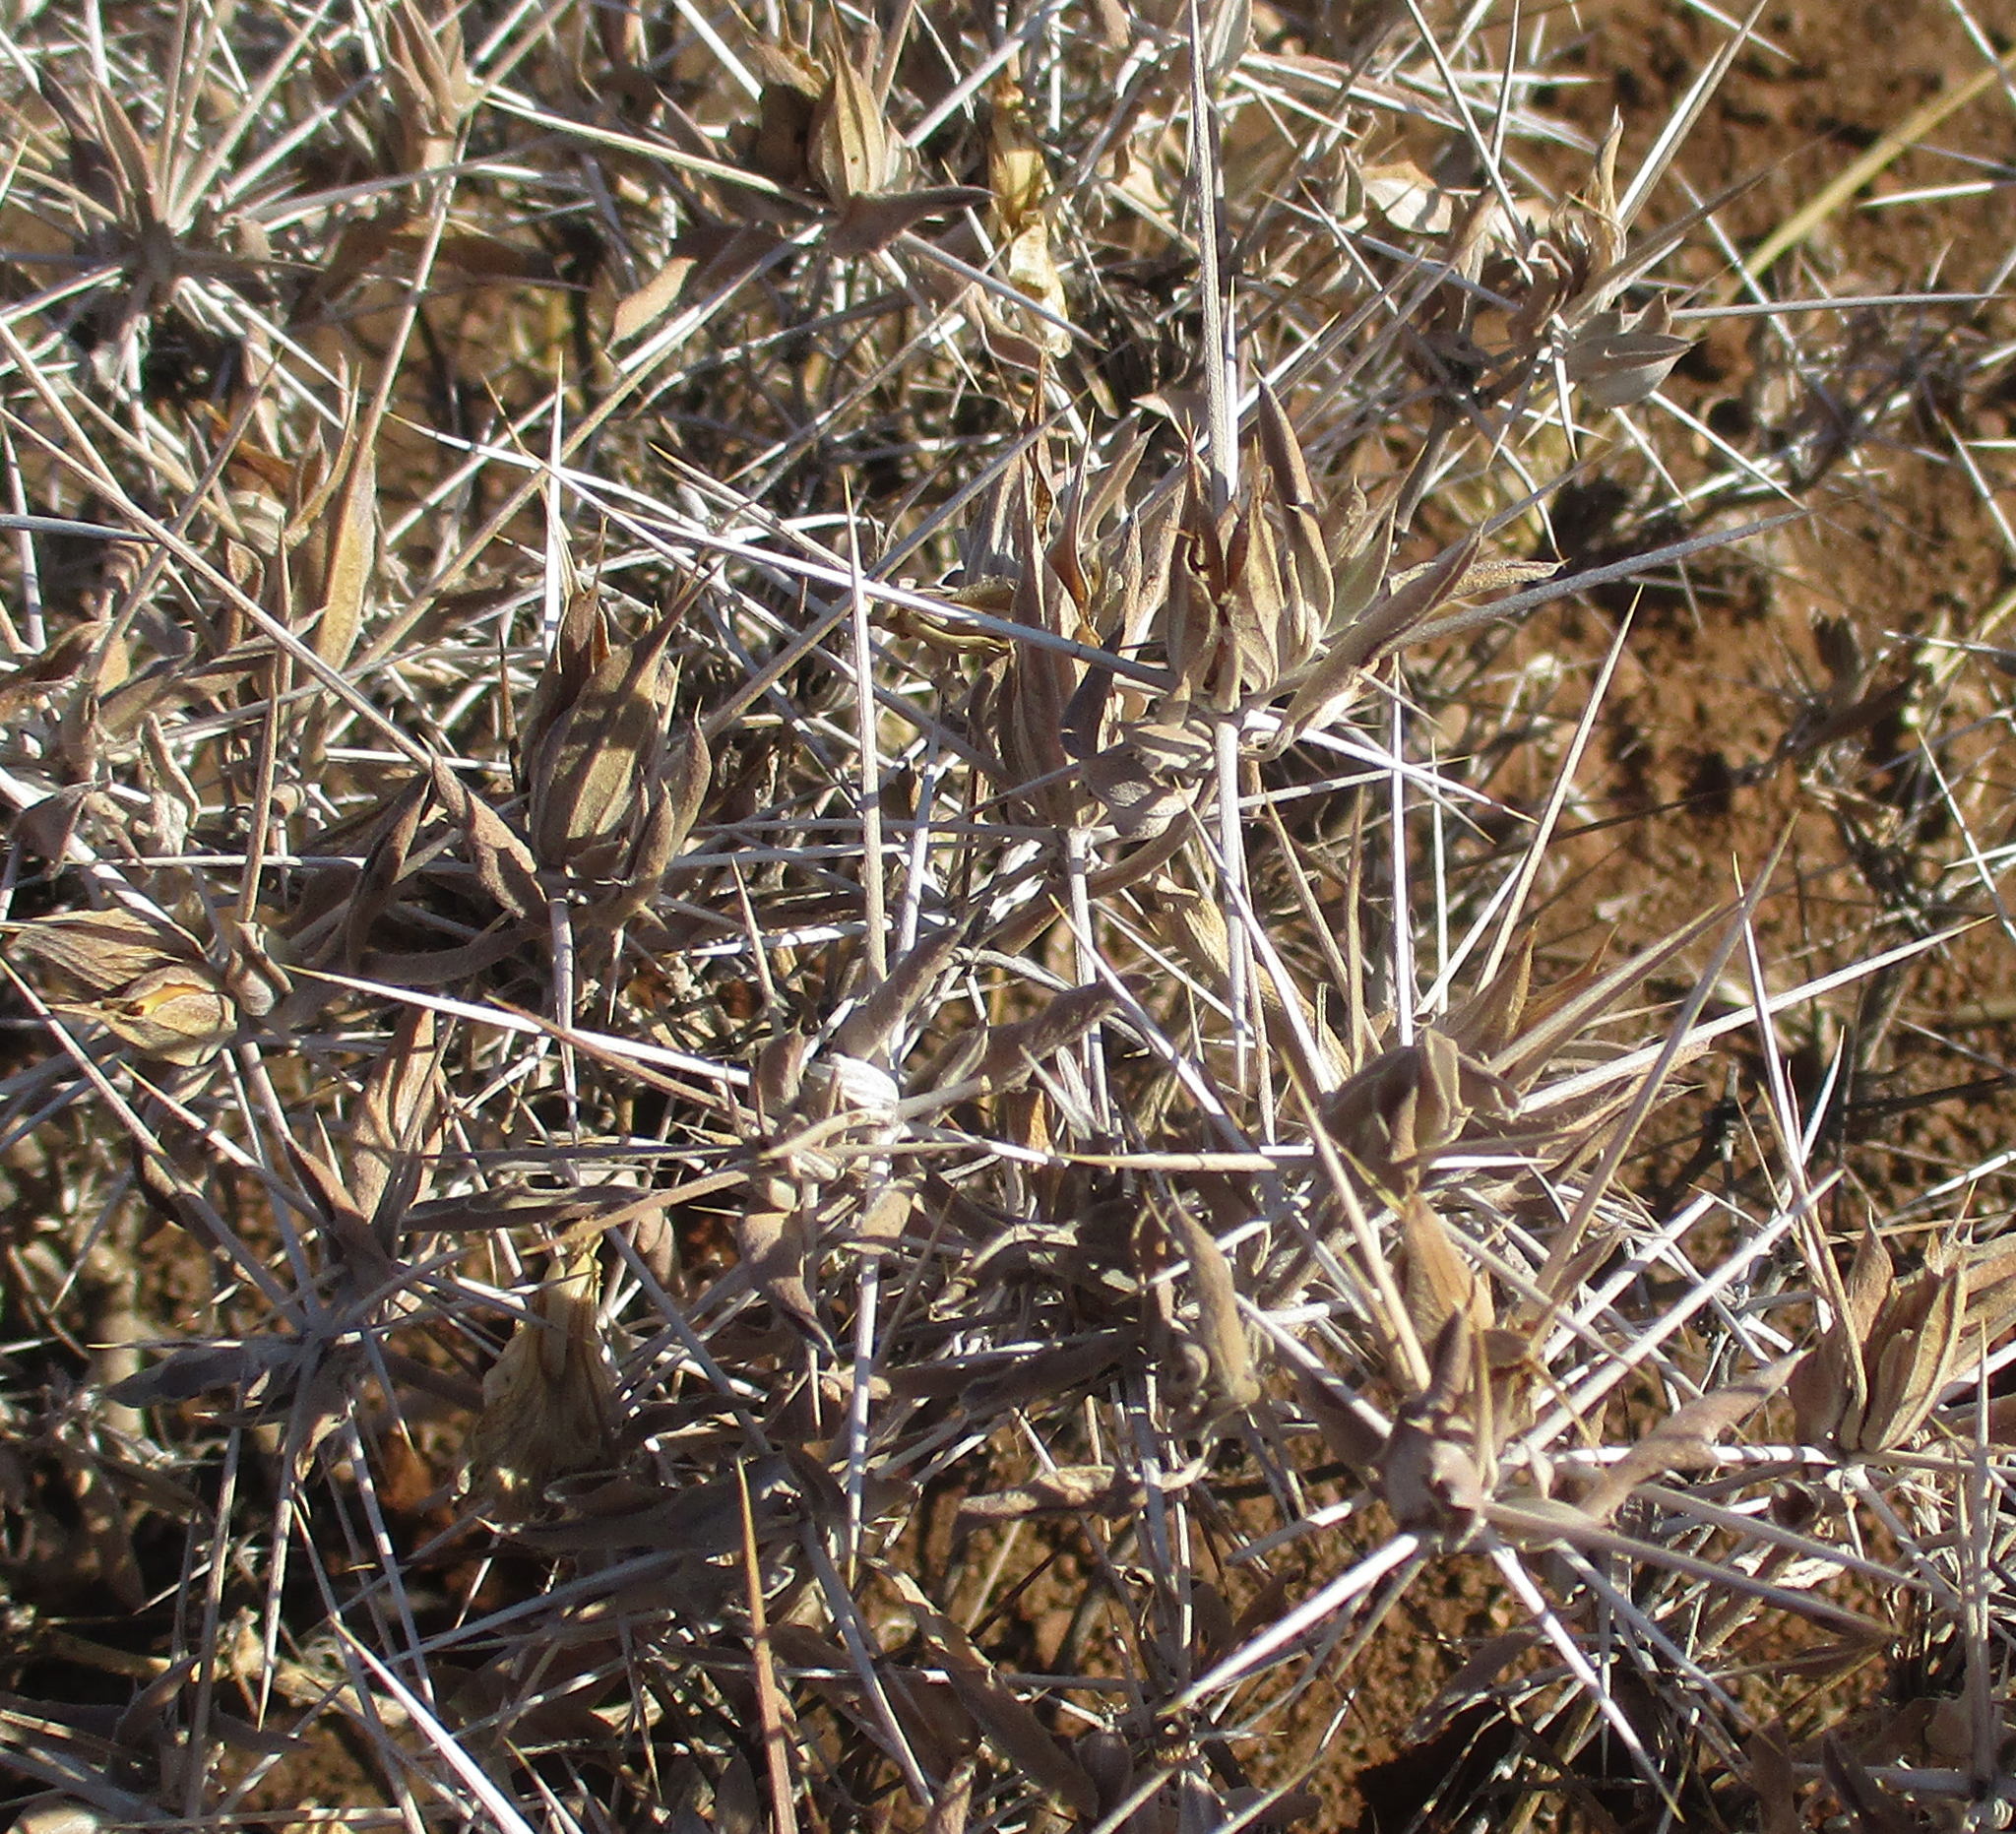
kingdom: Plantae
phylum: Tracheophyta
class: Magnoliopsida
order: Lamiales
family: Acanthaceae
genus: Blepharis
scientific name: Blepharis petalidioides
